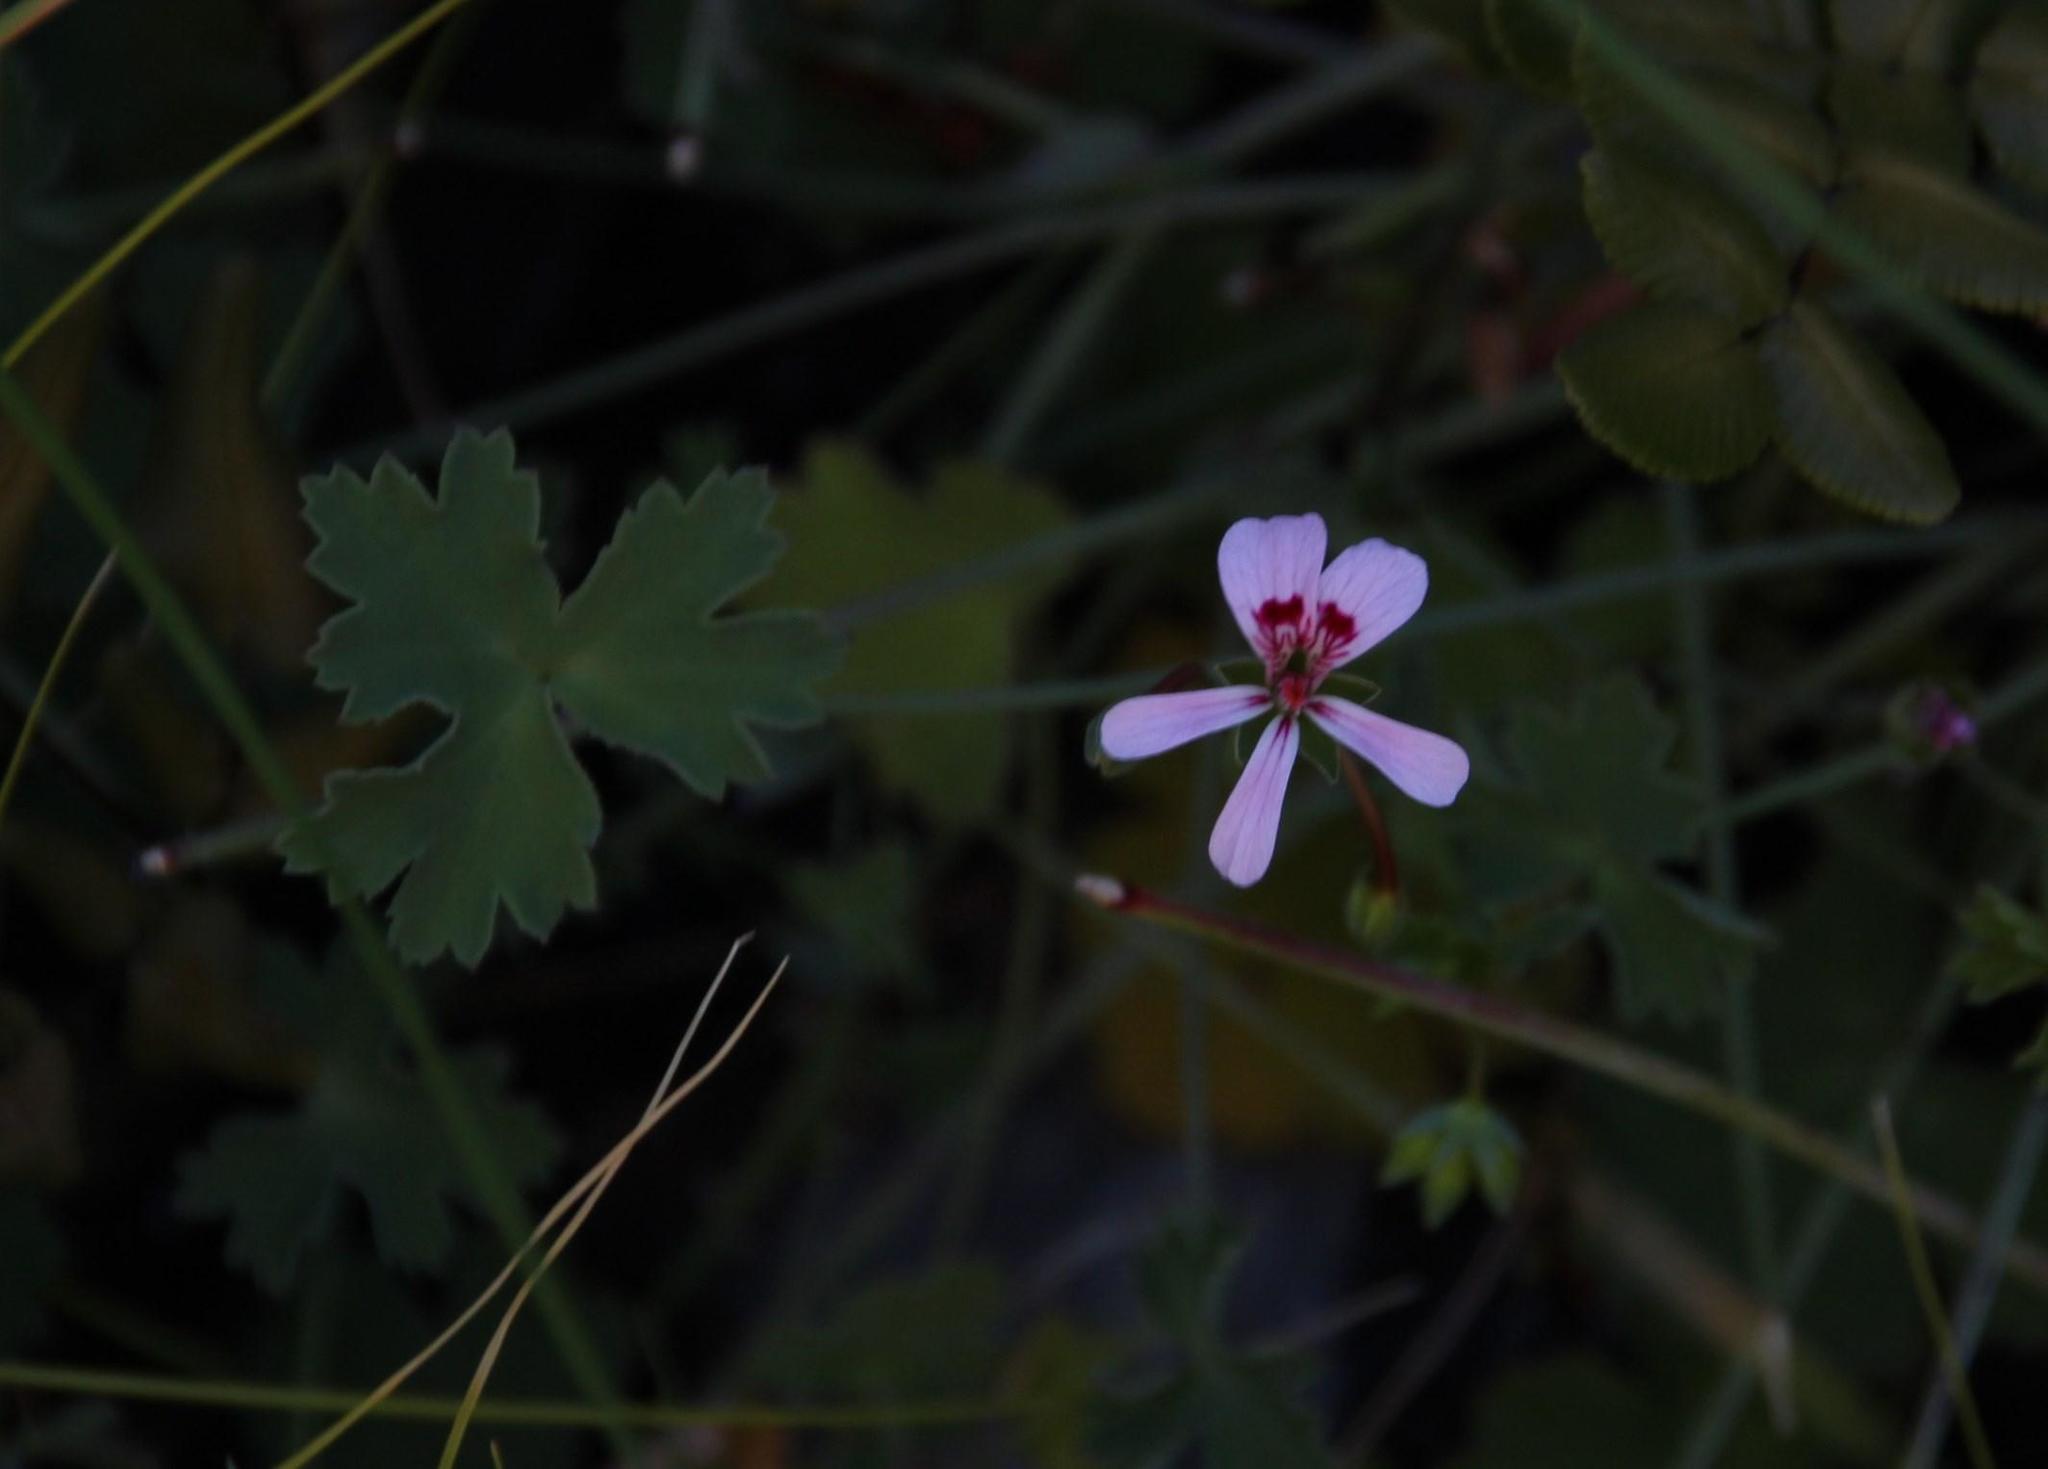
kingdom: Plantae
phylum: Tracheophyta
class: Magnoliopsida
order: Geraniales
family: Geraniaceae
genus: Pelargonium
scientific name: Pelargonium patulum
